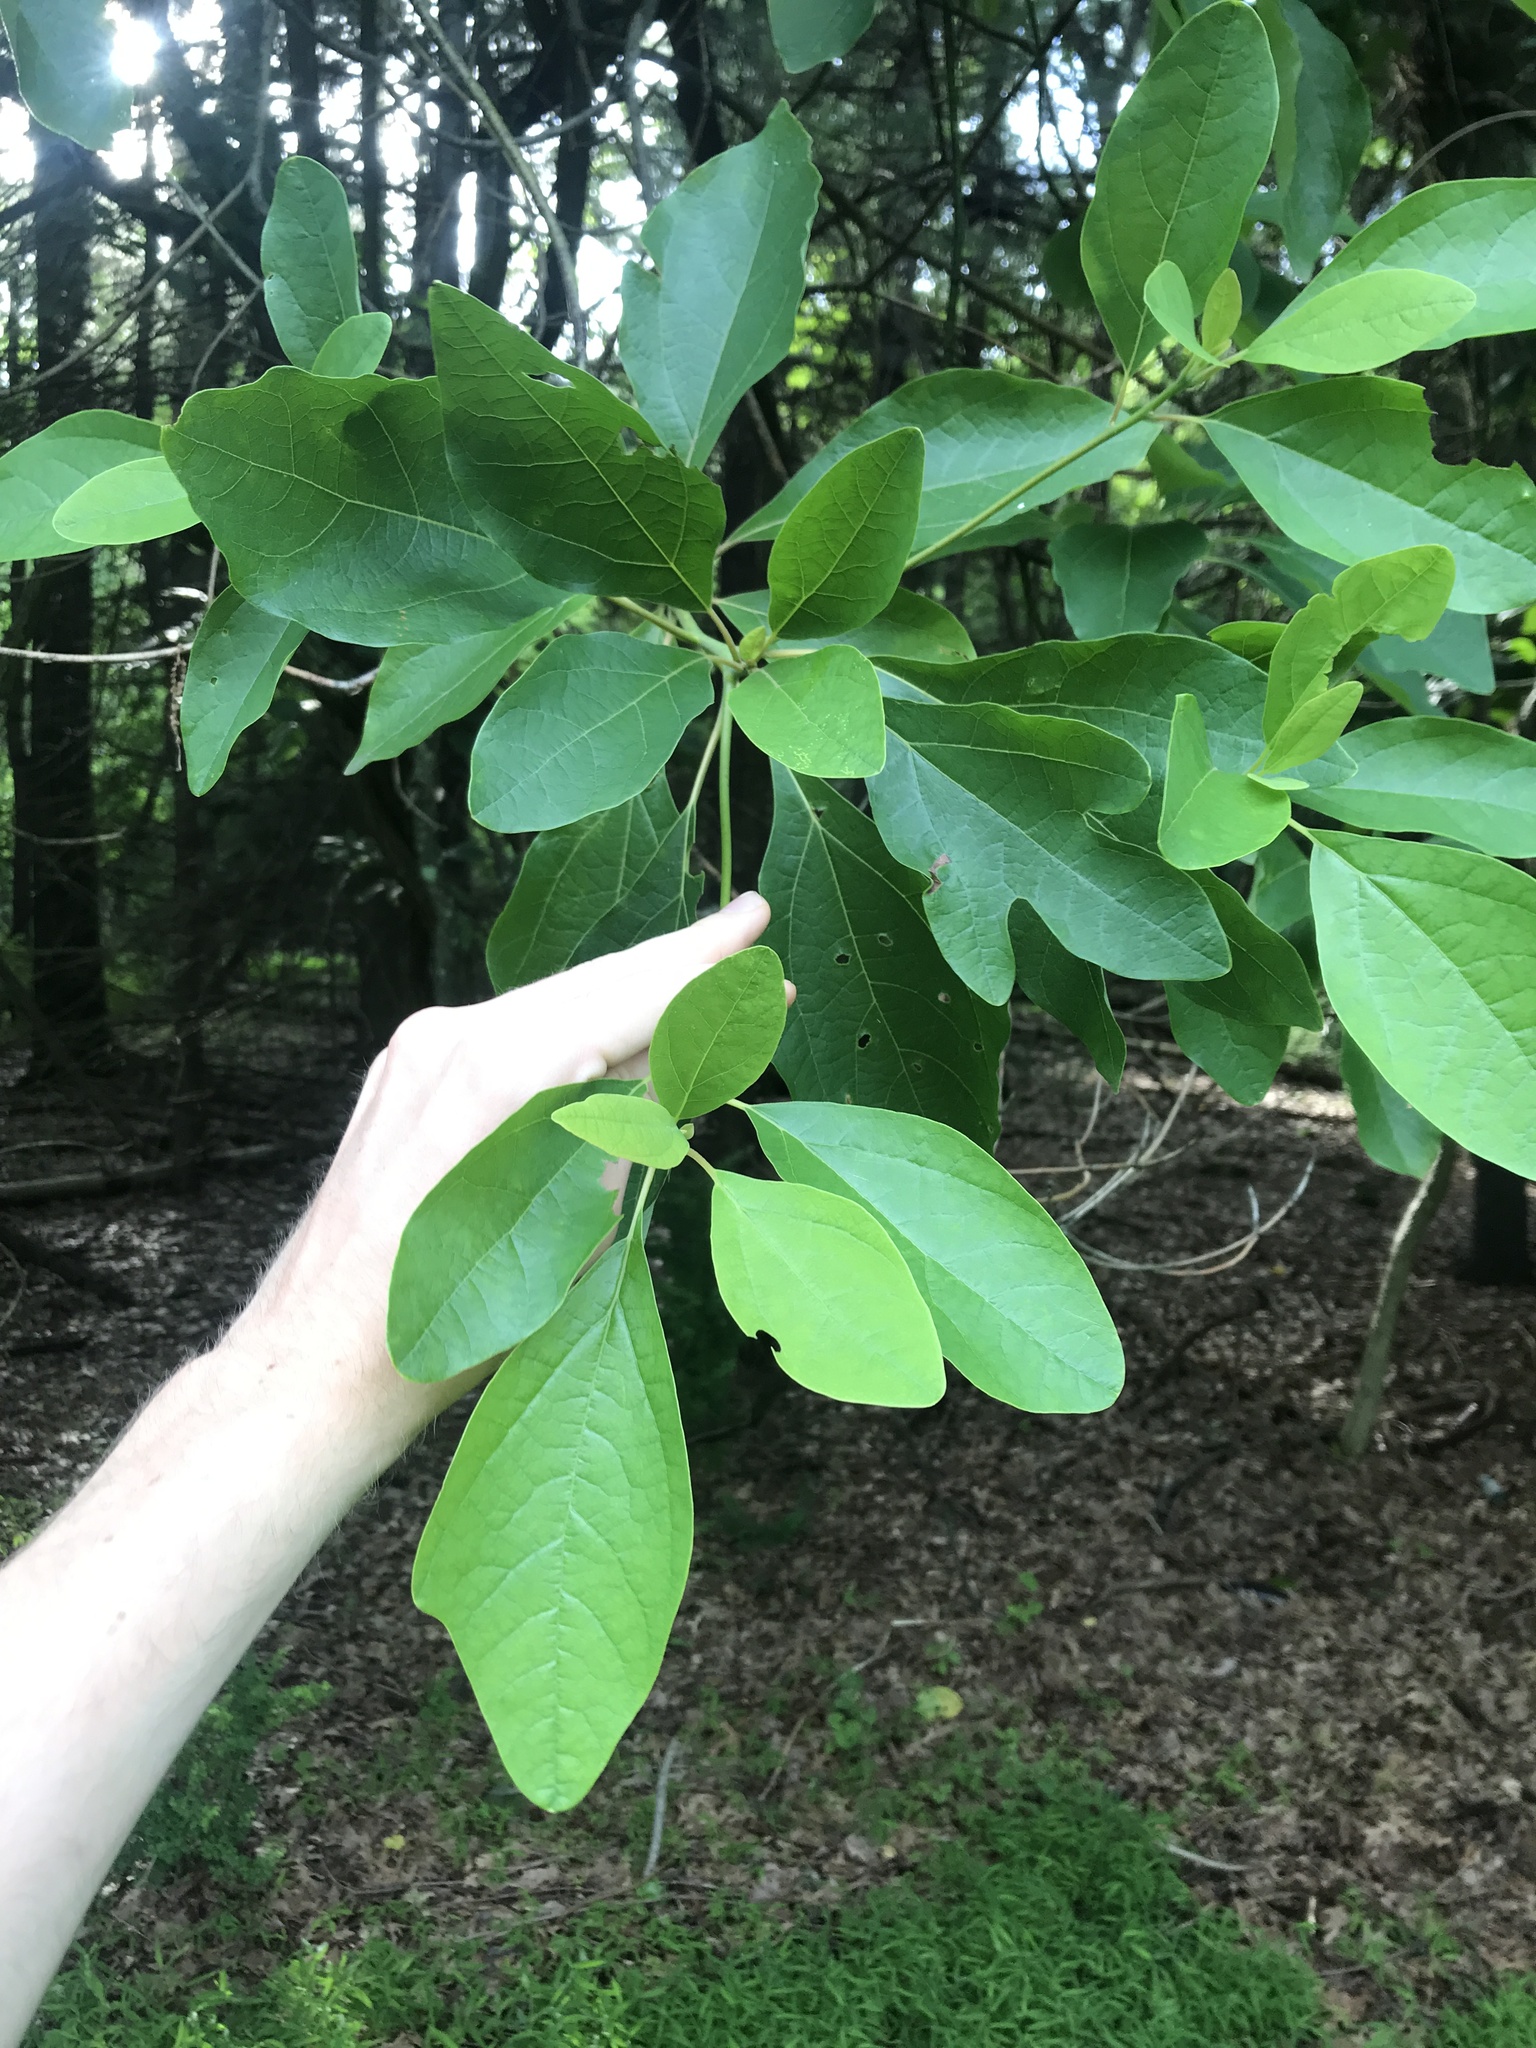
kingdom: Plantae
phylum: Tracheophyta
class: Magnoliopsida
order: Laurales
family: Lauraceae
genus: Sassafras
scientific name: Sassafras albidum
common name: Sassafras
